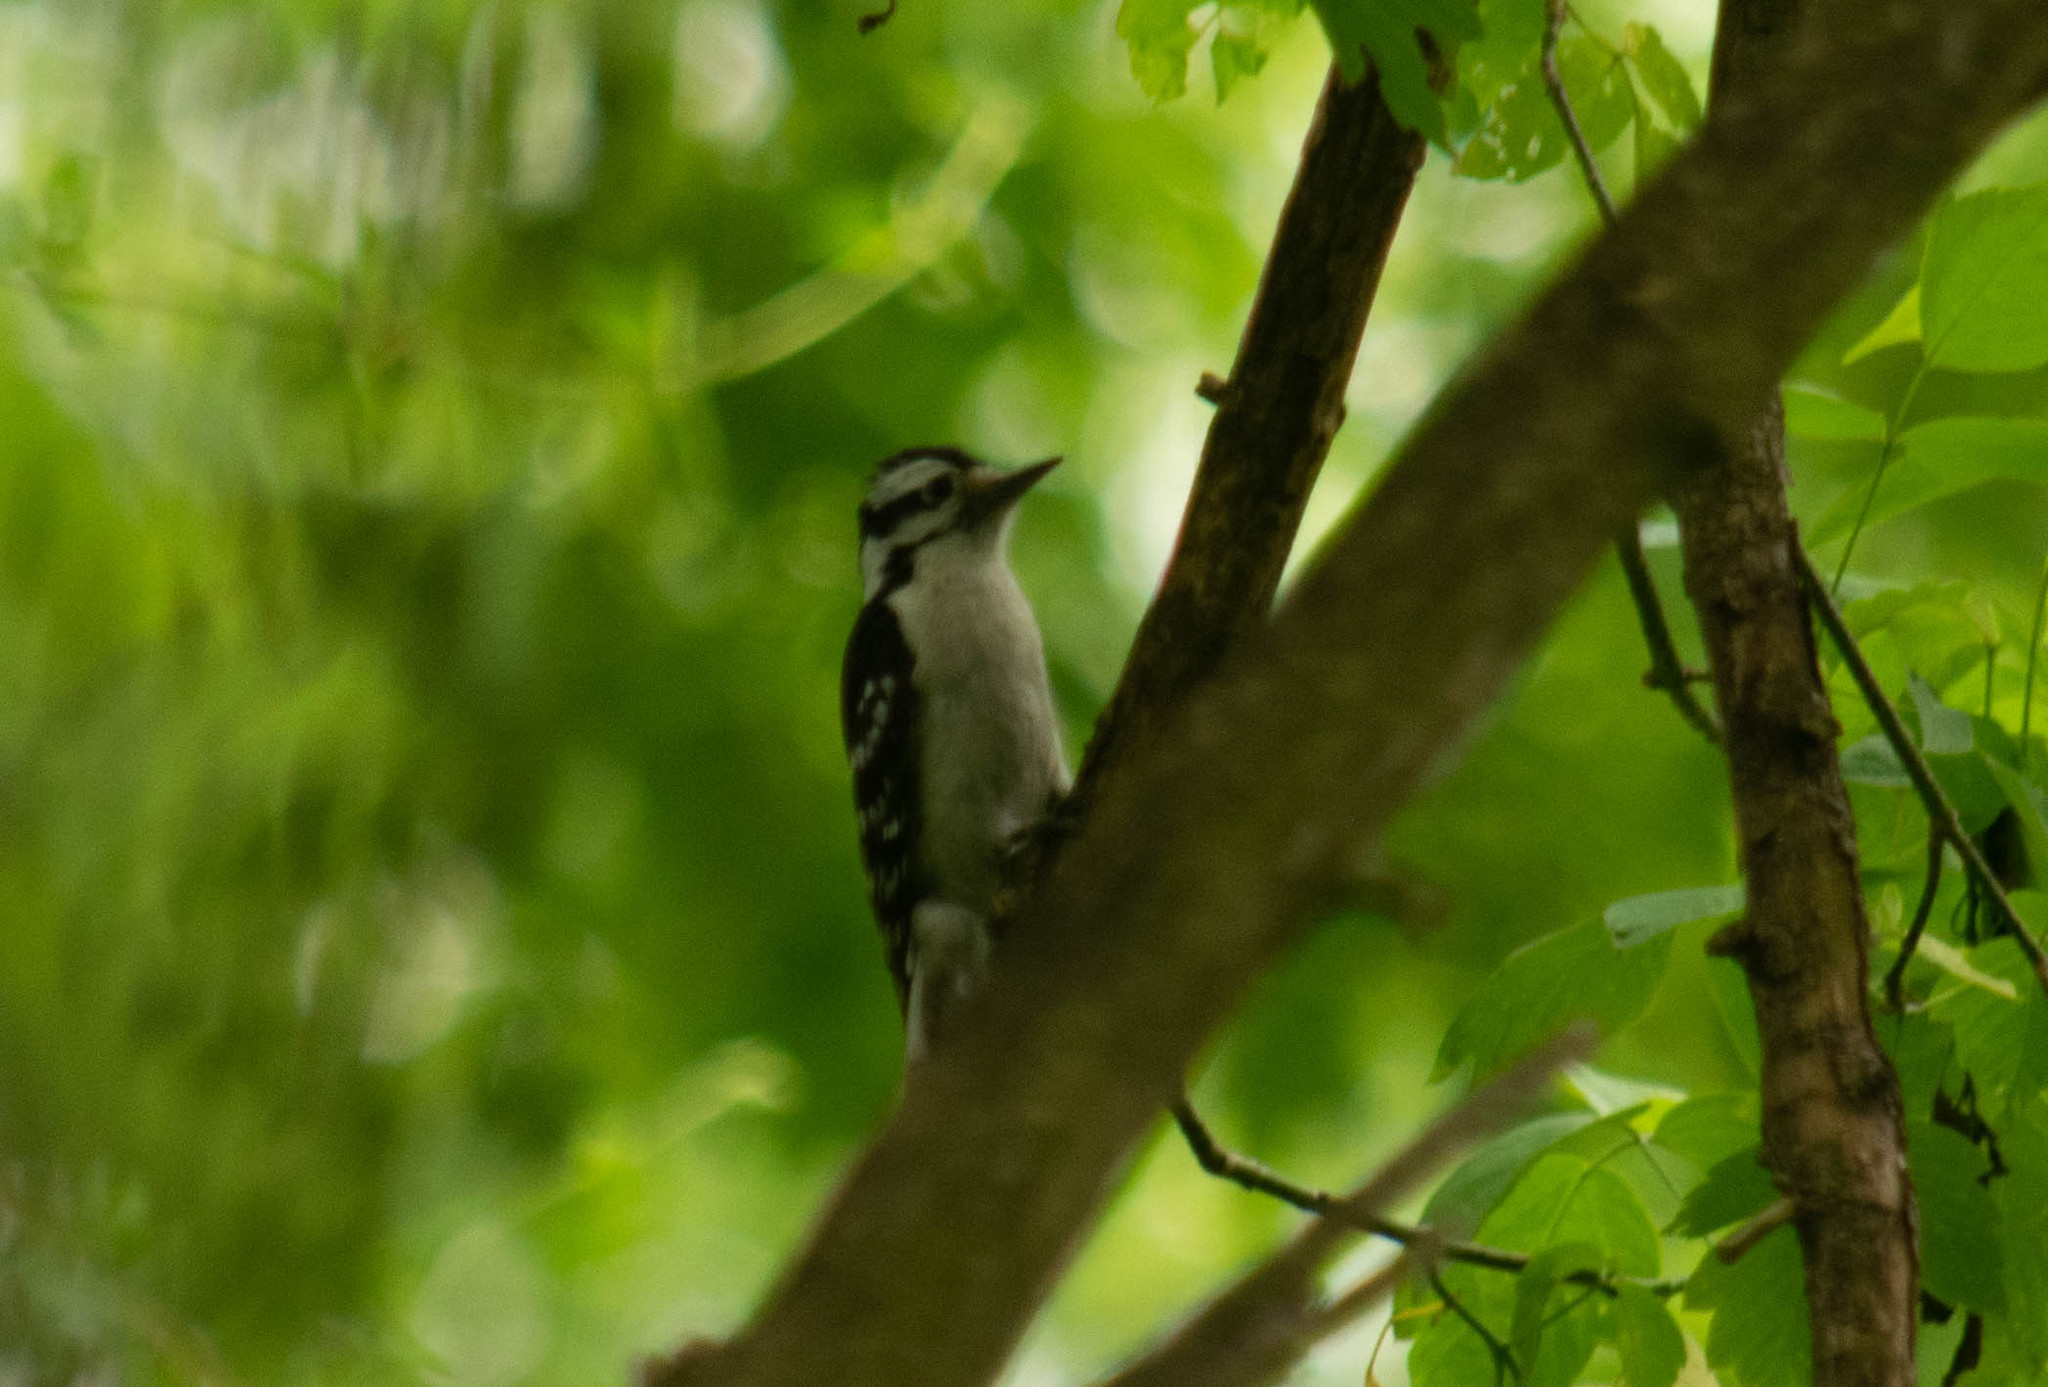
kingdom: Animalia
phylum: Chordata
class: Aves
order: Piciformes
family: Picidae
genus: Dryobates
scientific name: Dryobates pubescens
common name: Downy woodpecker
